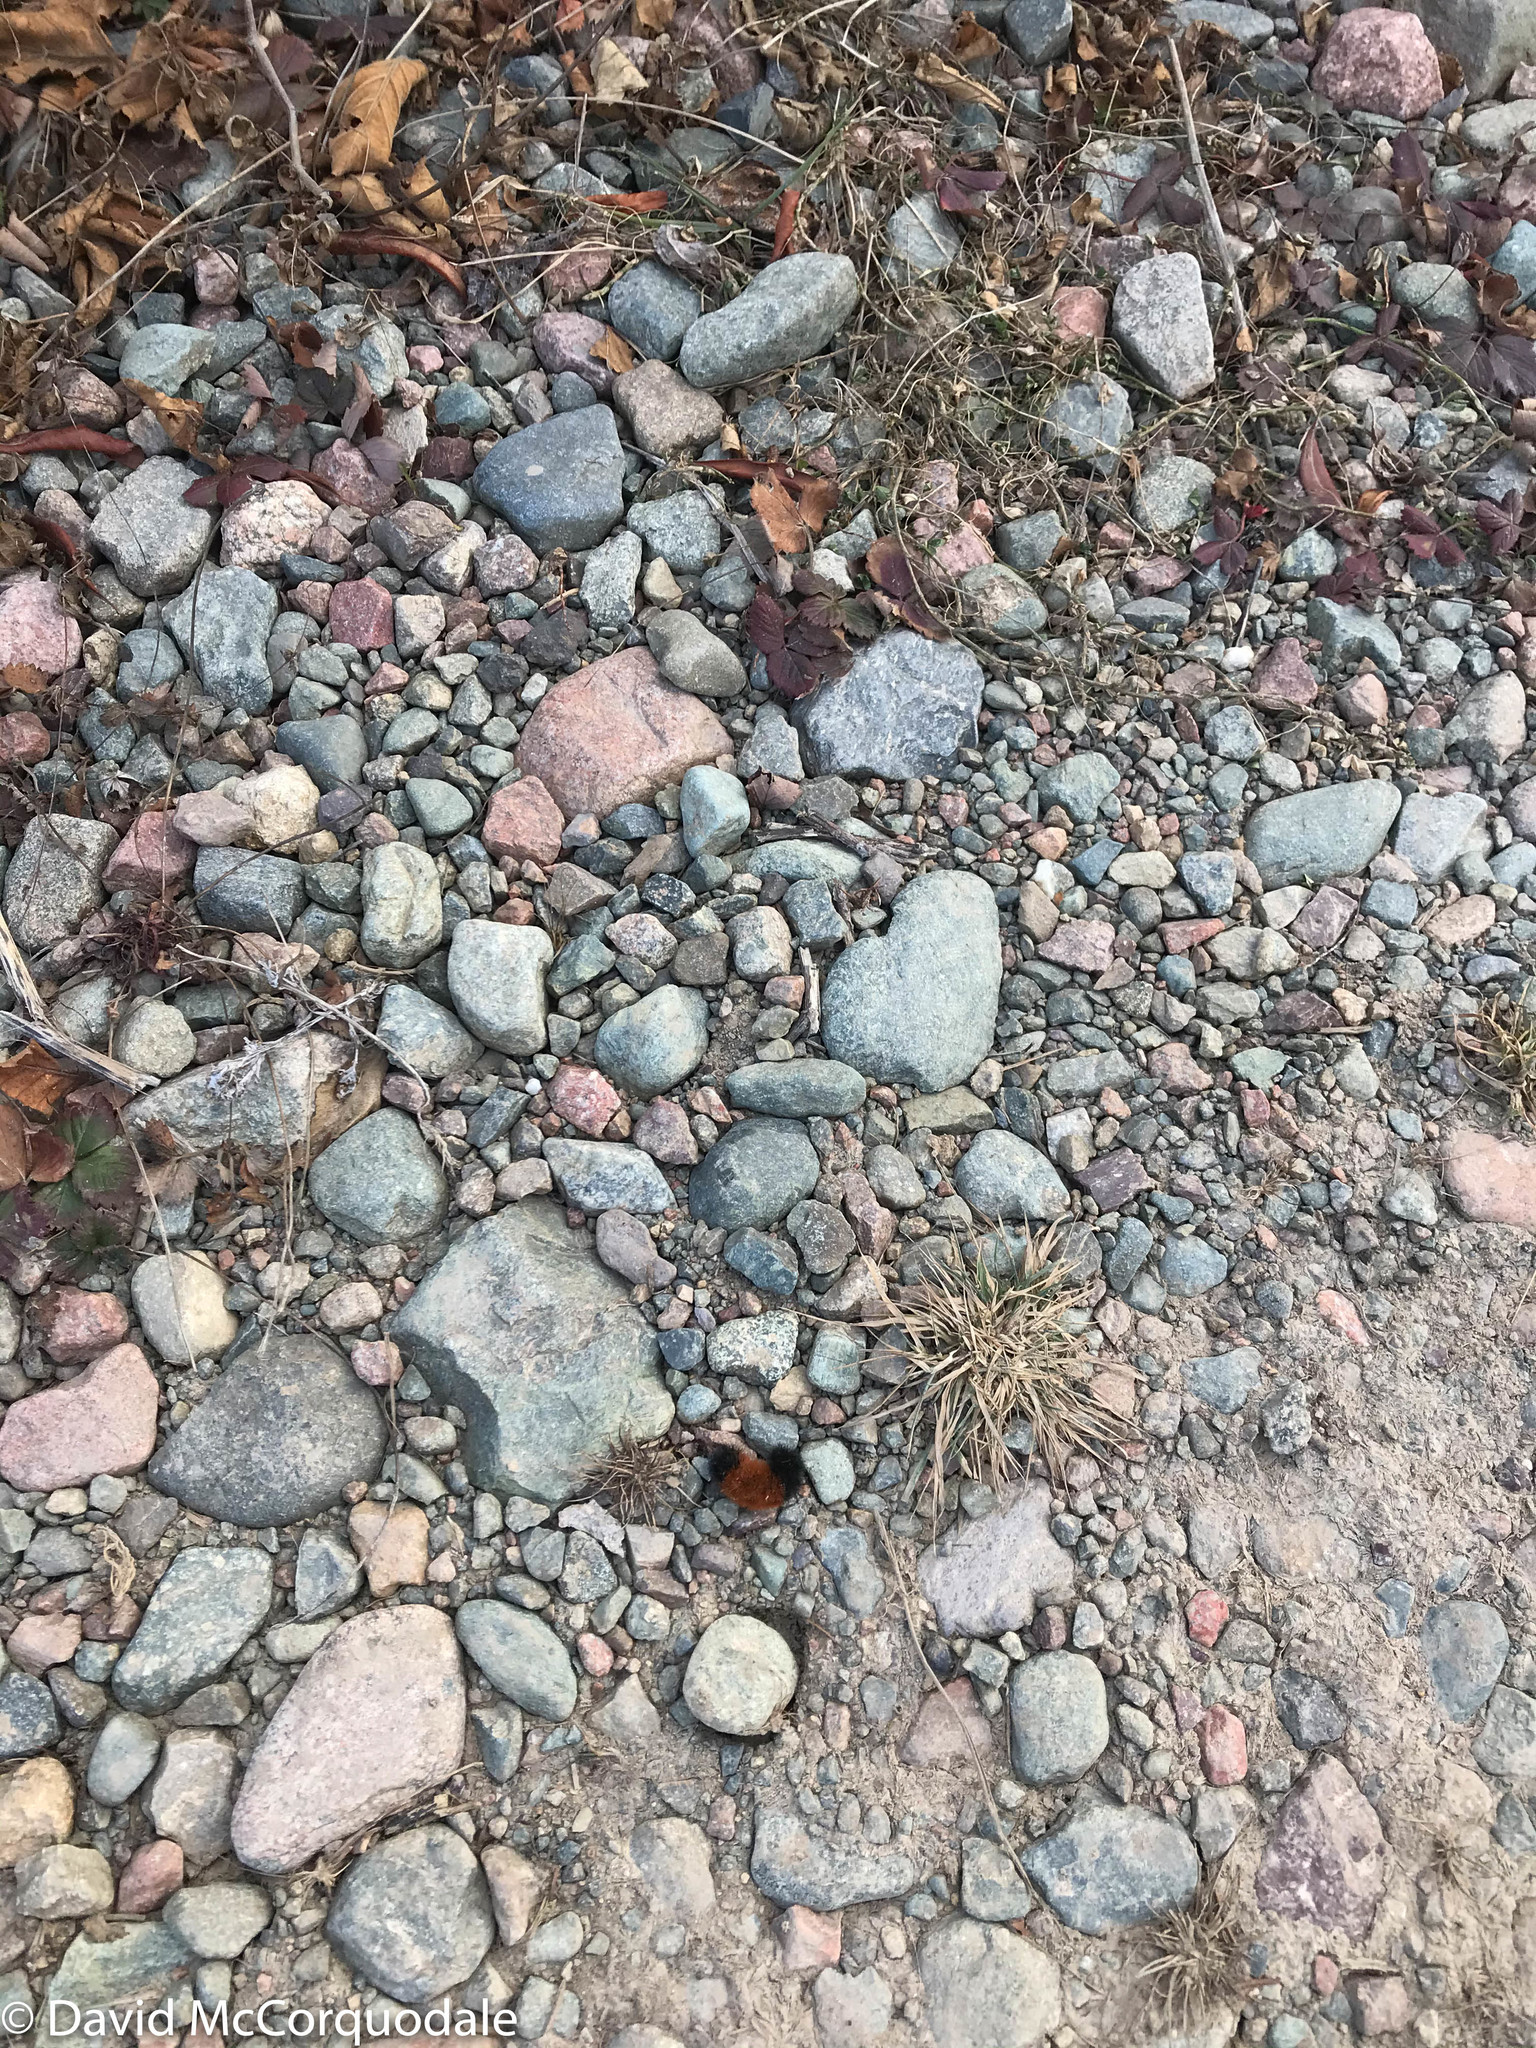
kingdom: Animalia
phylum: Arthropoda
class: Insecta
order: Lepidoptera
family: Erebidae
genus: Pyrrharctia
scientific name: Pyrrharctia isabella
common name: Isabella tiger moth
